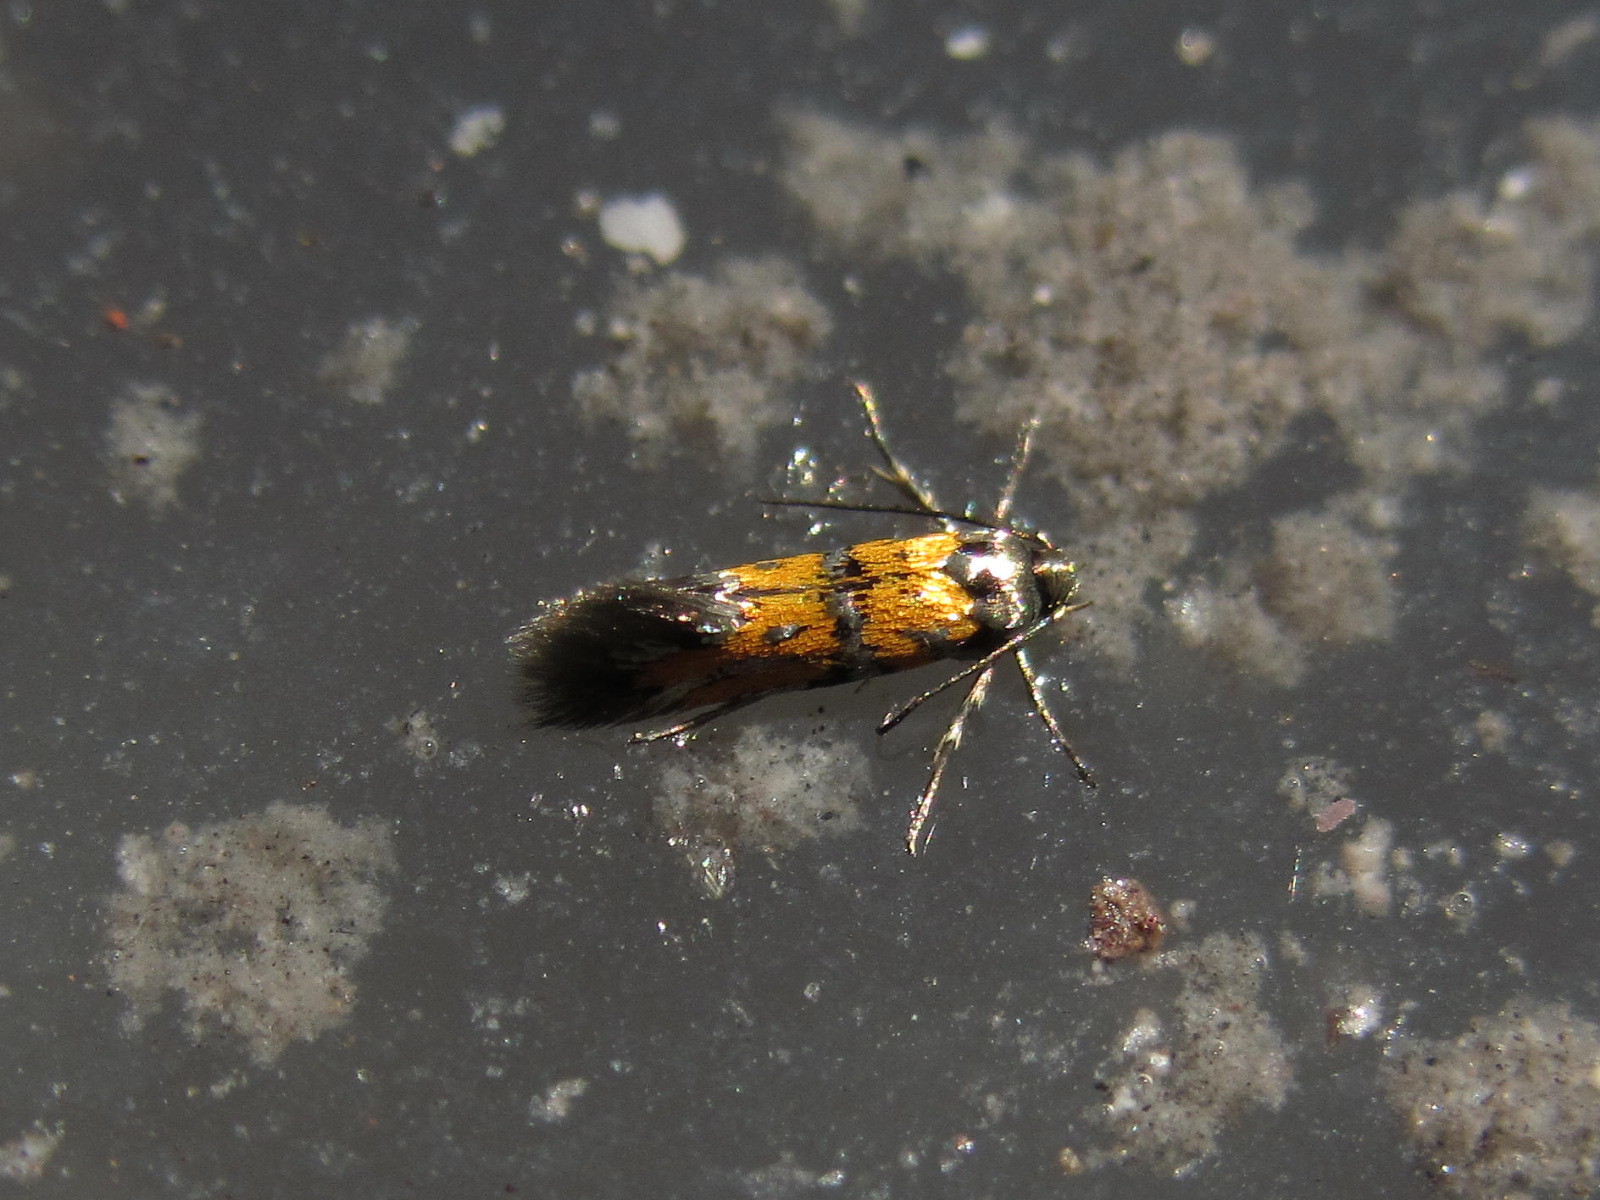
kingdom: Animalia
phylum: Arthropoda
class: Insecta
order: Lepidoptera
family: Gelechiidae
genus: Chrysoesthia
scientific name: Chrysoesthia drurella
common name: Flame neb
